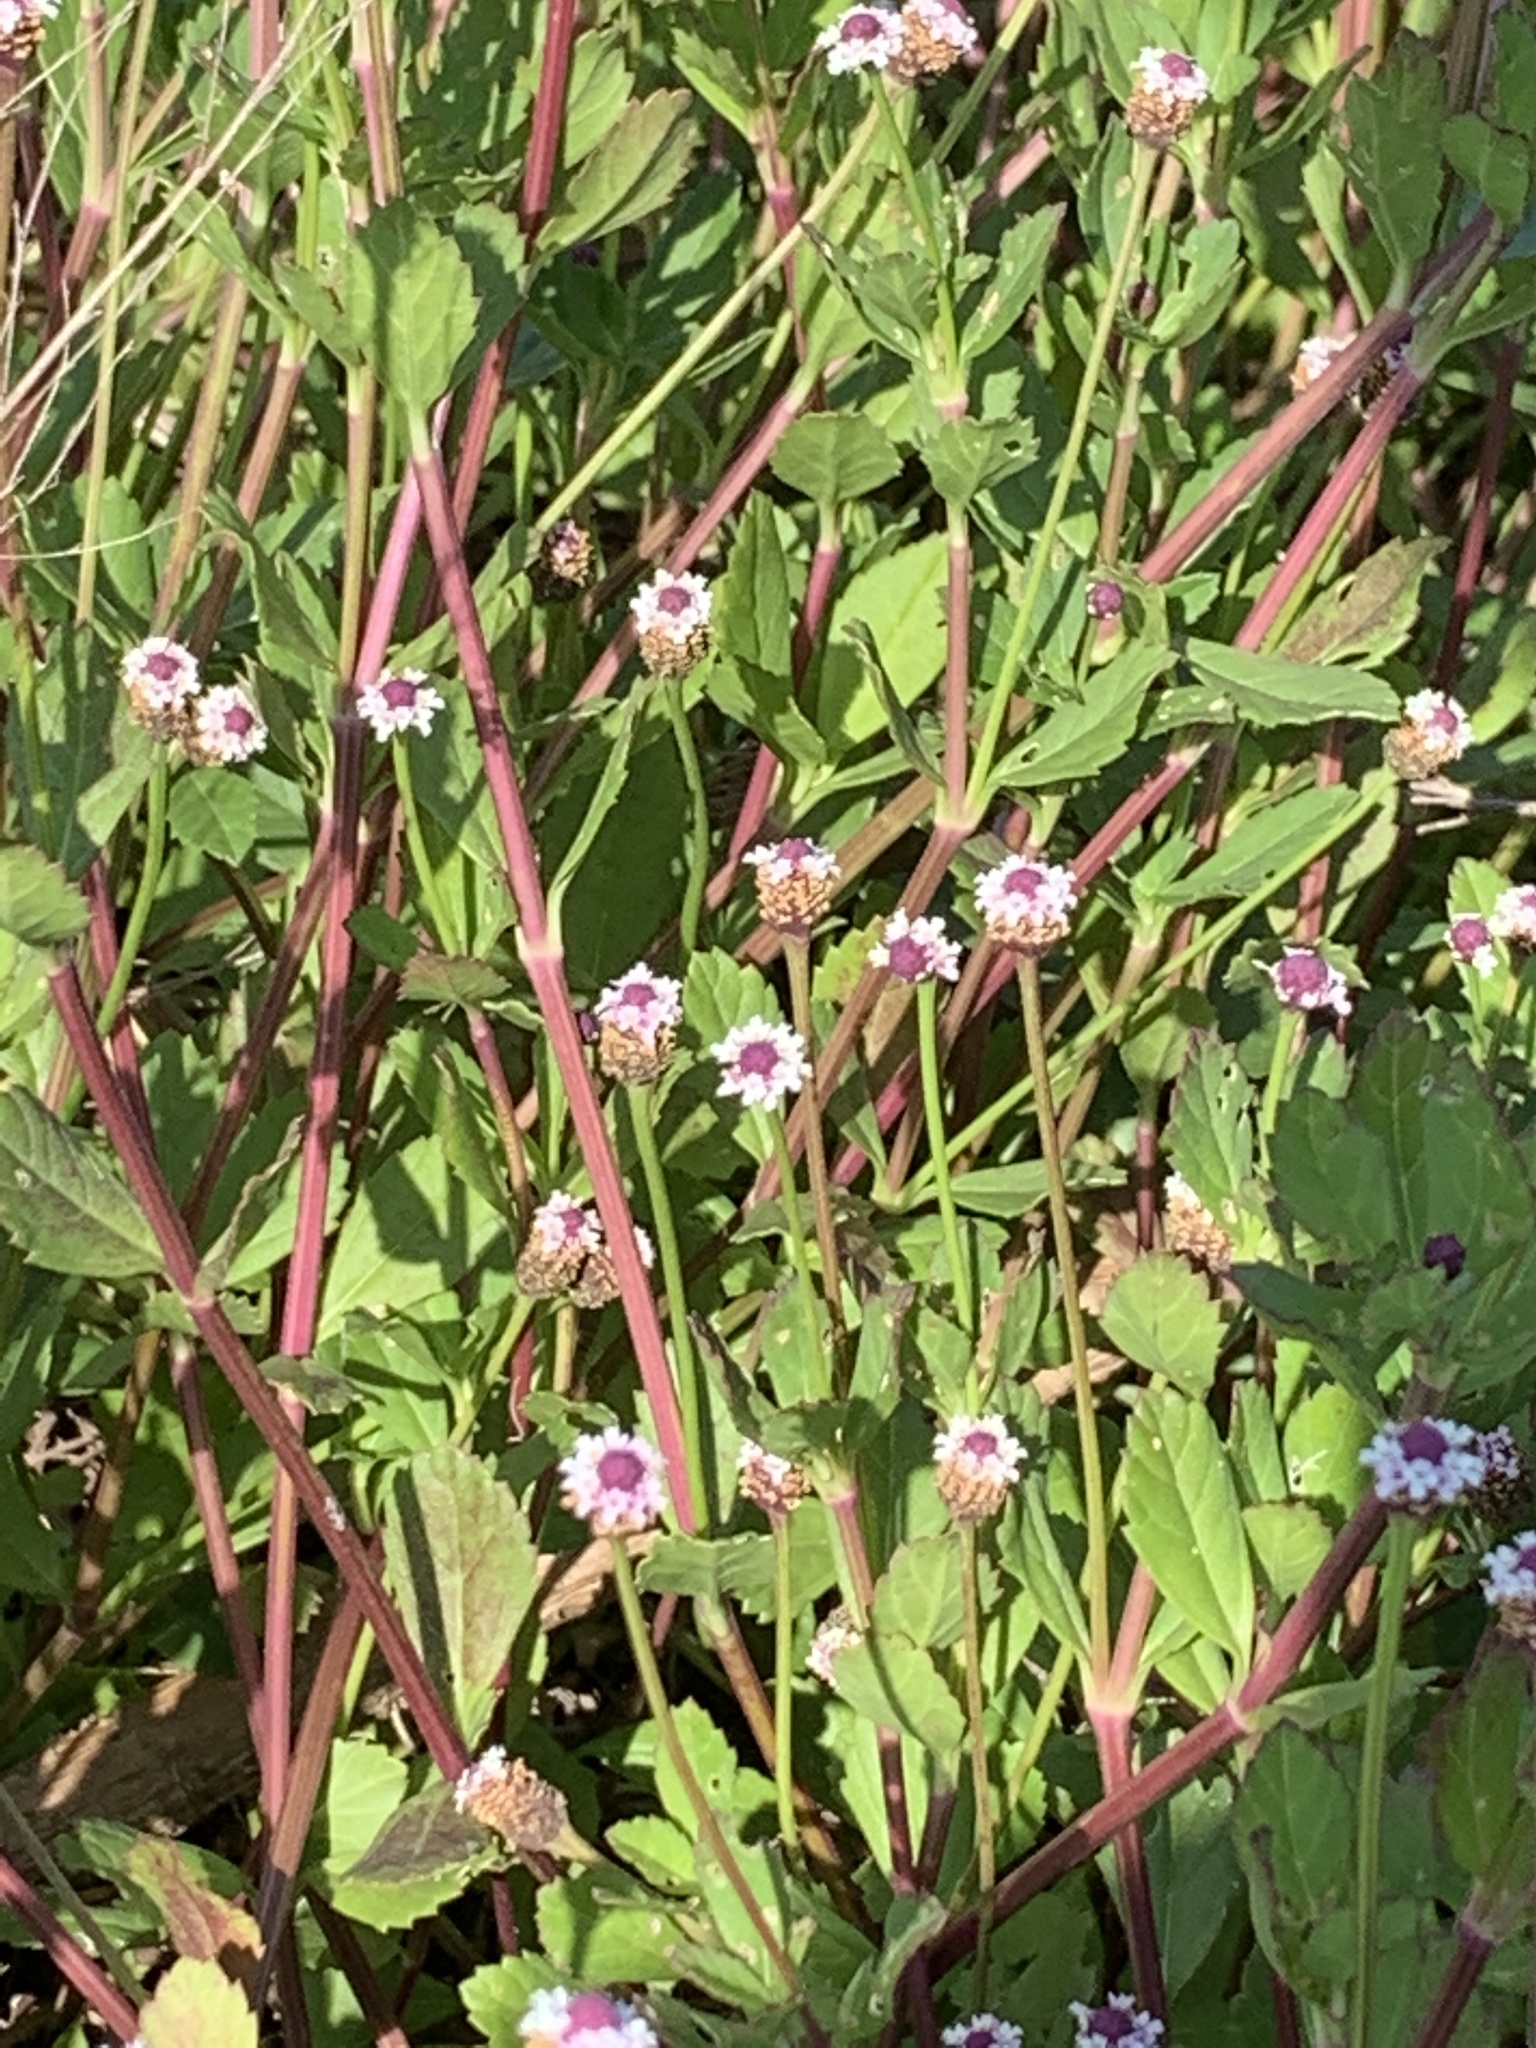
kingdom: Plantae
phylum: Tracheophyta
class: Magnoliopsida
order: Lamiales
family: Verbenaceae
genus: Phyla
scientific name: Phyla nodiflora
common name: Frogfruit
